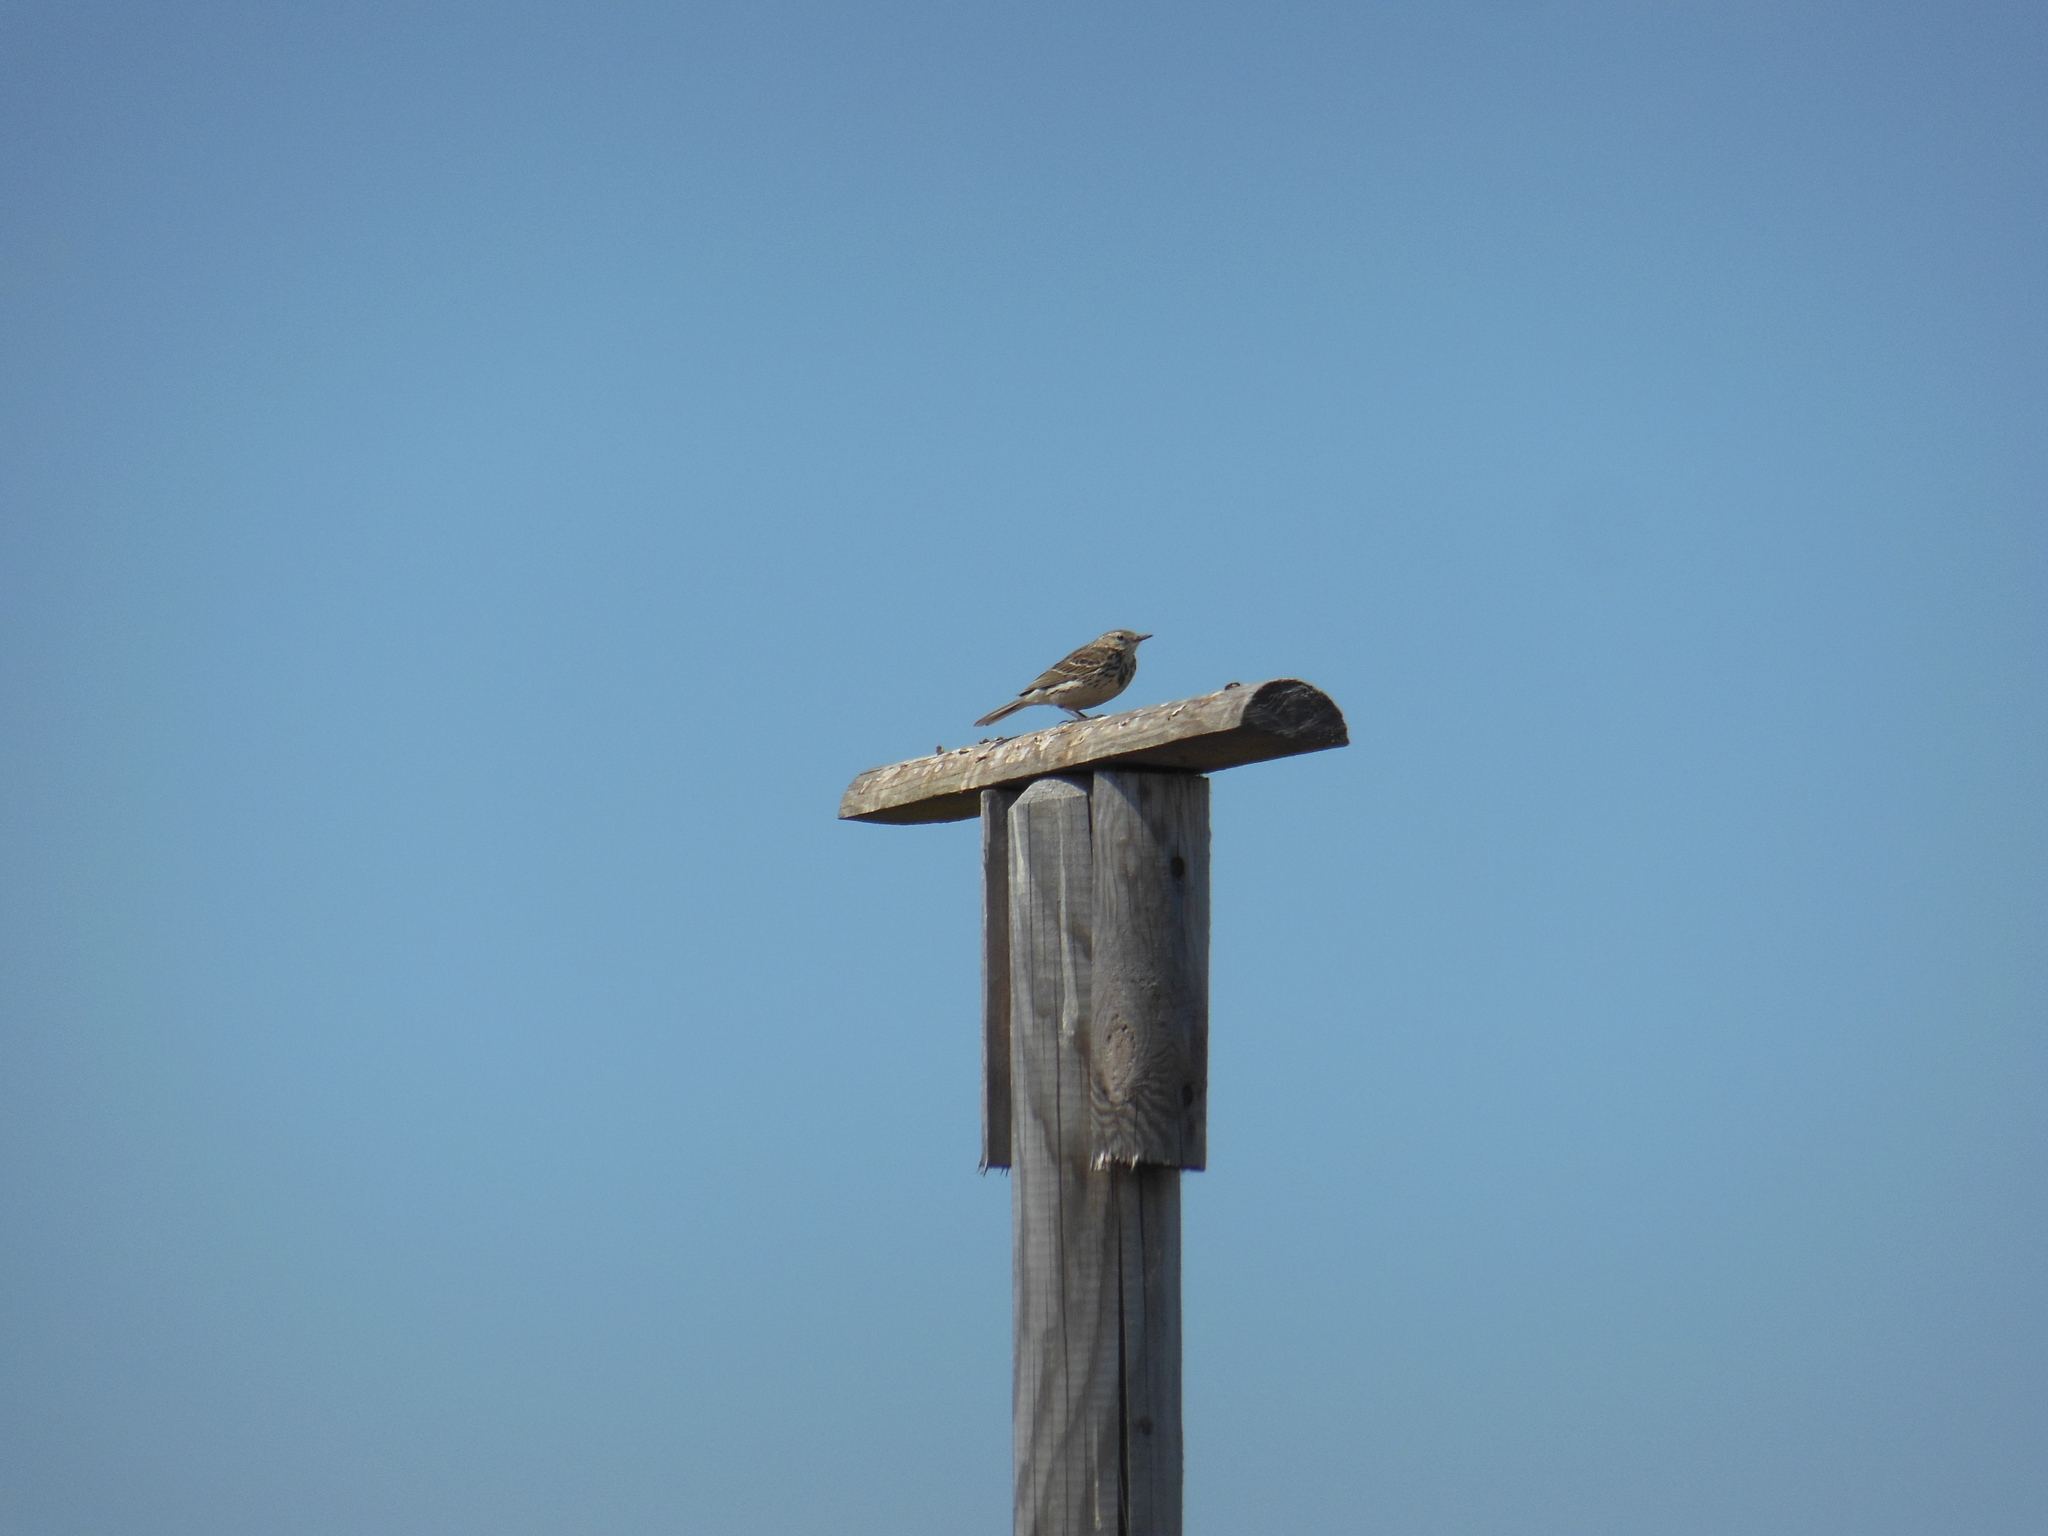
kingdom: Animalia
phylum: Chordata
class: Aves
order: Passeriformes
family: Motacillidae
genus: Anthus
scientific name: Anthus pratensis
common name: Meadow pipit
